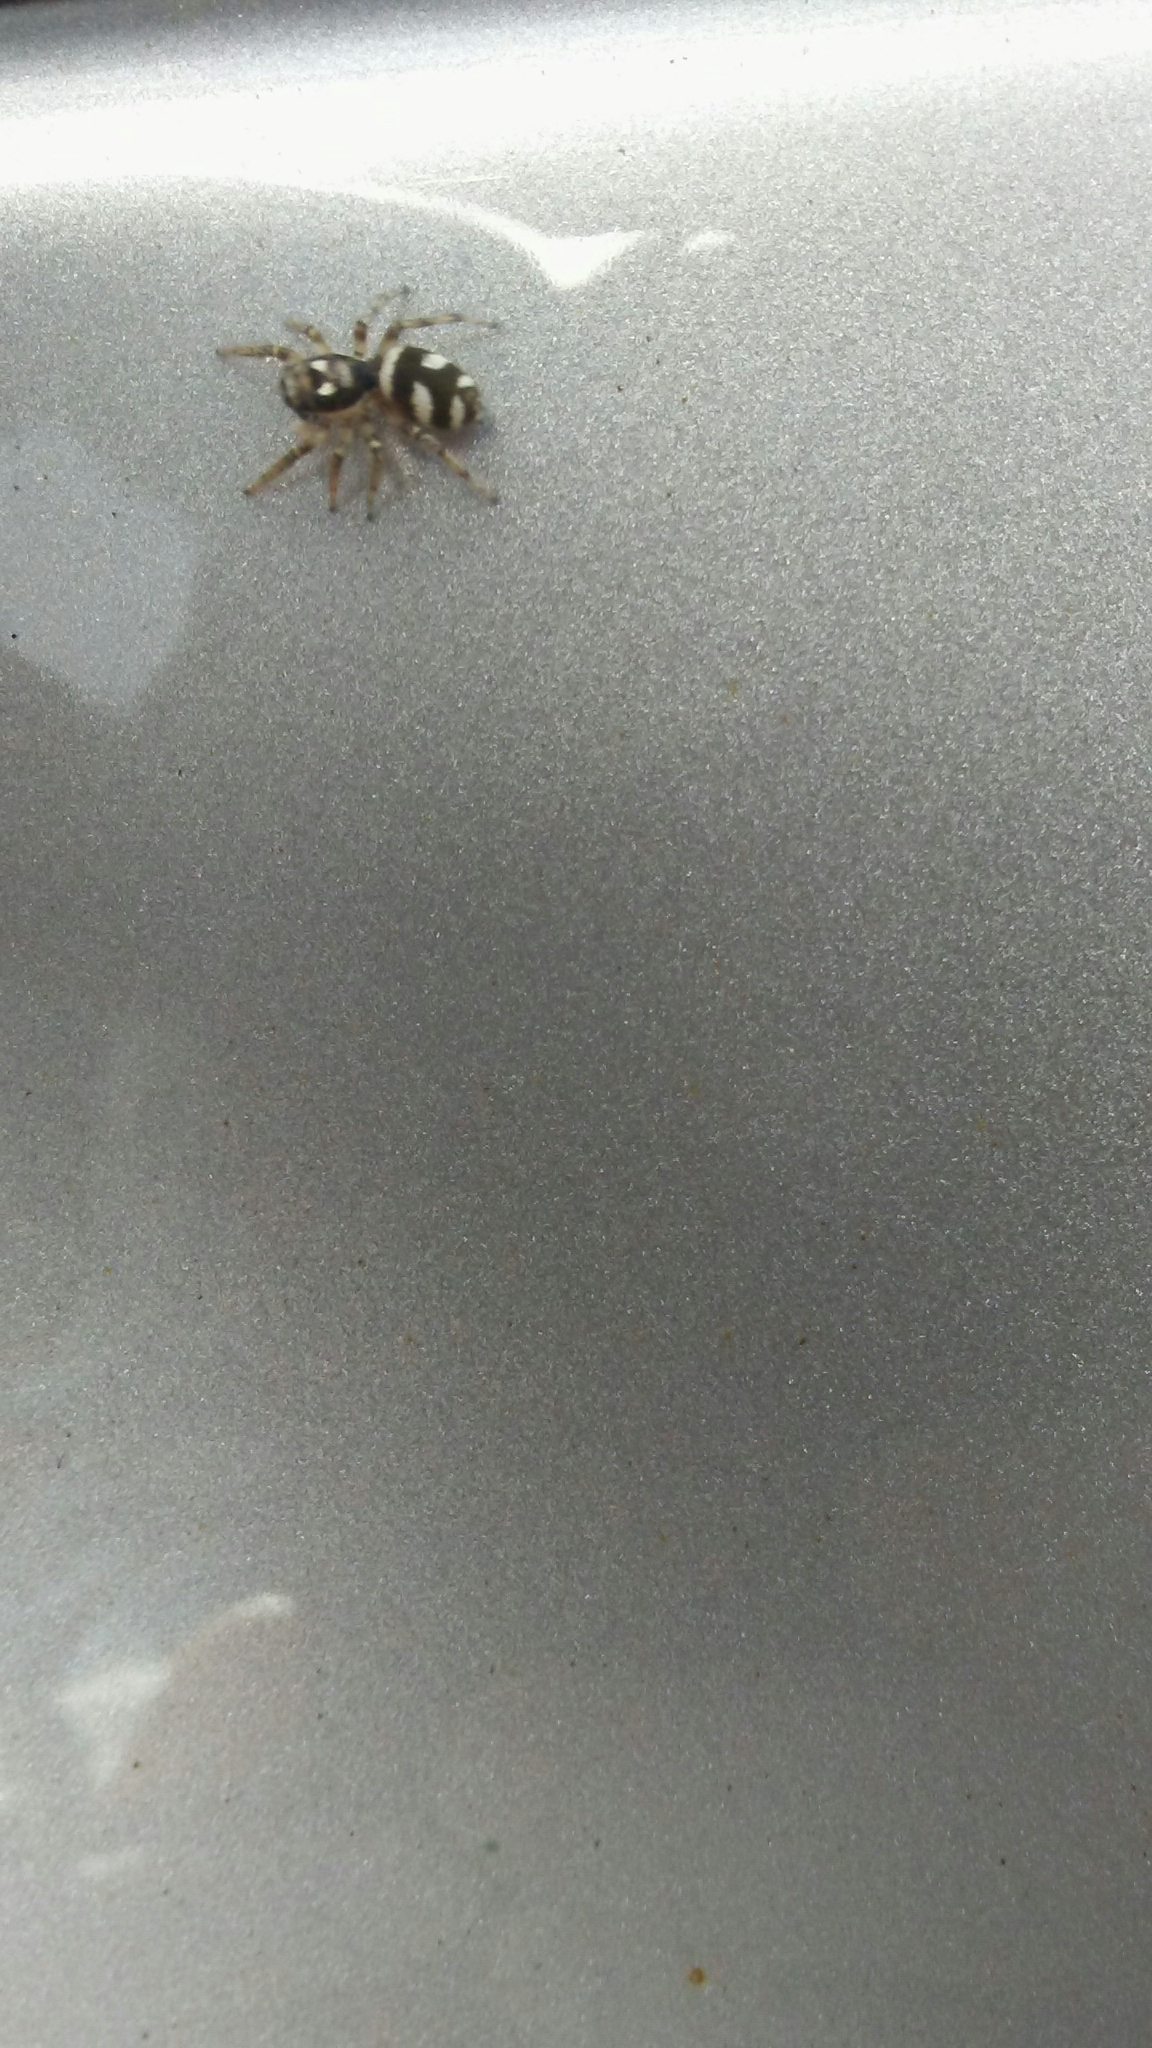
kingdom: Animalia
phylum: Arthropoda
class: Arachnida
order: Araneae
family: Salticidae
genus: Salticus
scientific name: Salticus scenicus
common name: Zebra jumper
